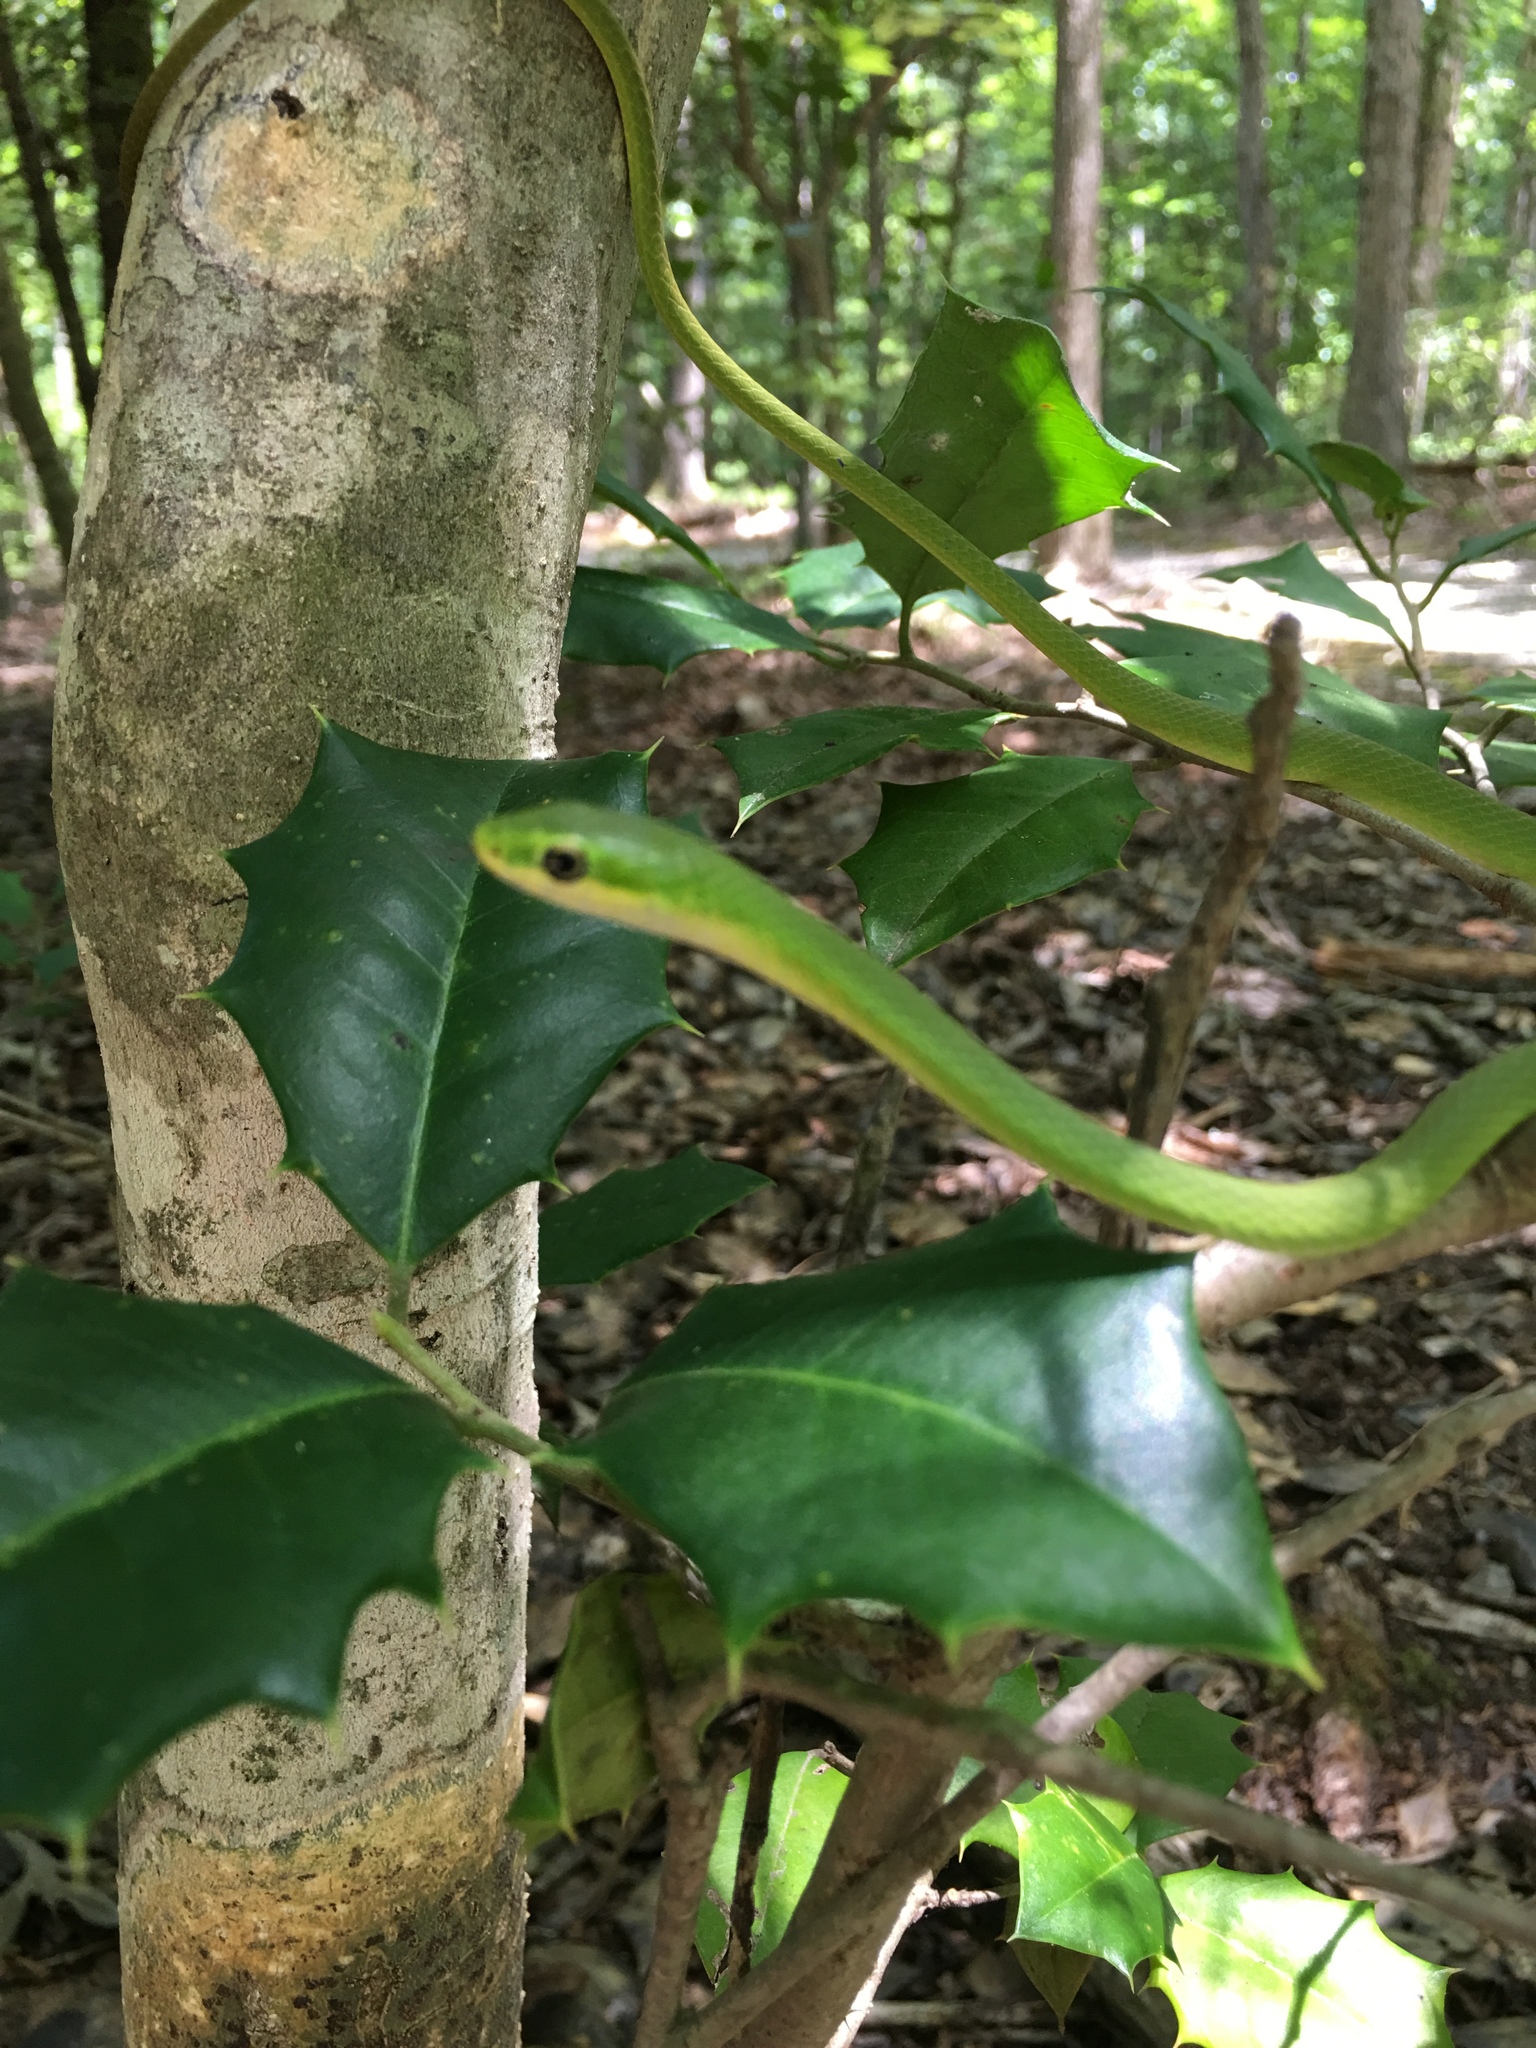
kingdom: Animalia
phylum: Chordata
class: Squamata
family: Colubridae
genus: Opheodrys
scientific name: Opheodrys aestivus
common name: Rough greensnake
